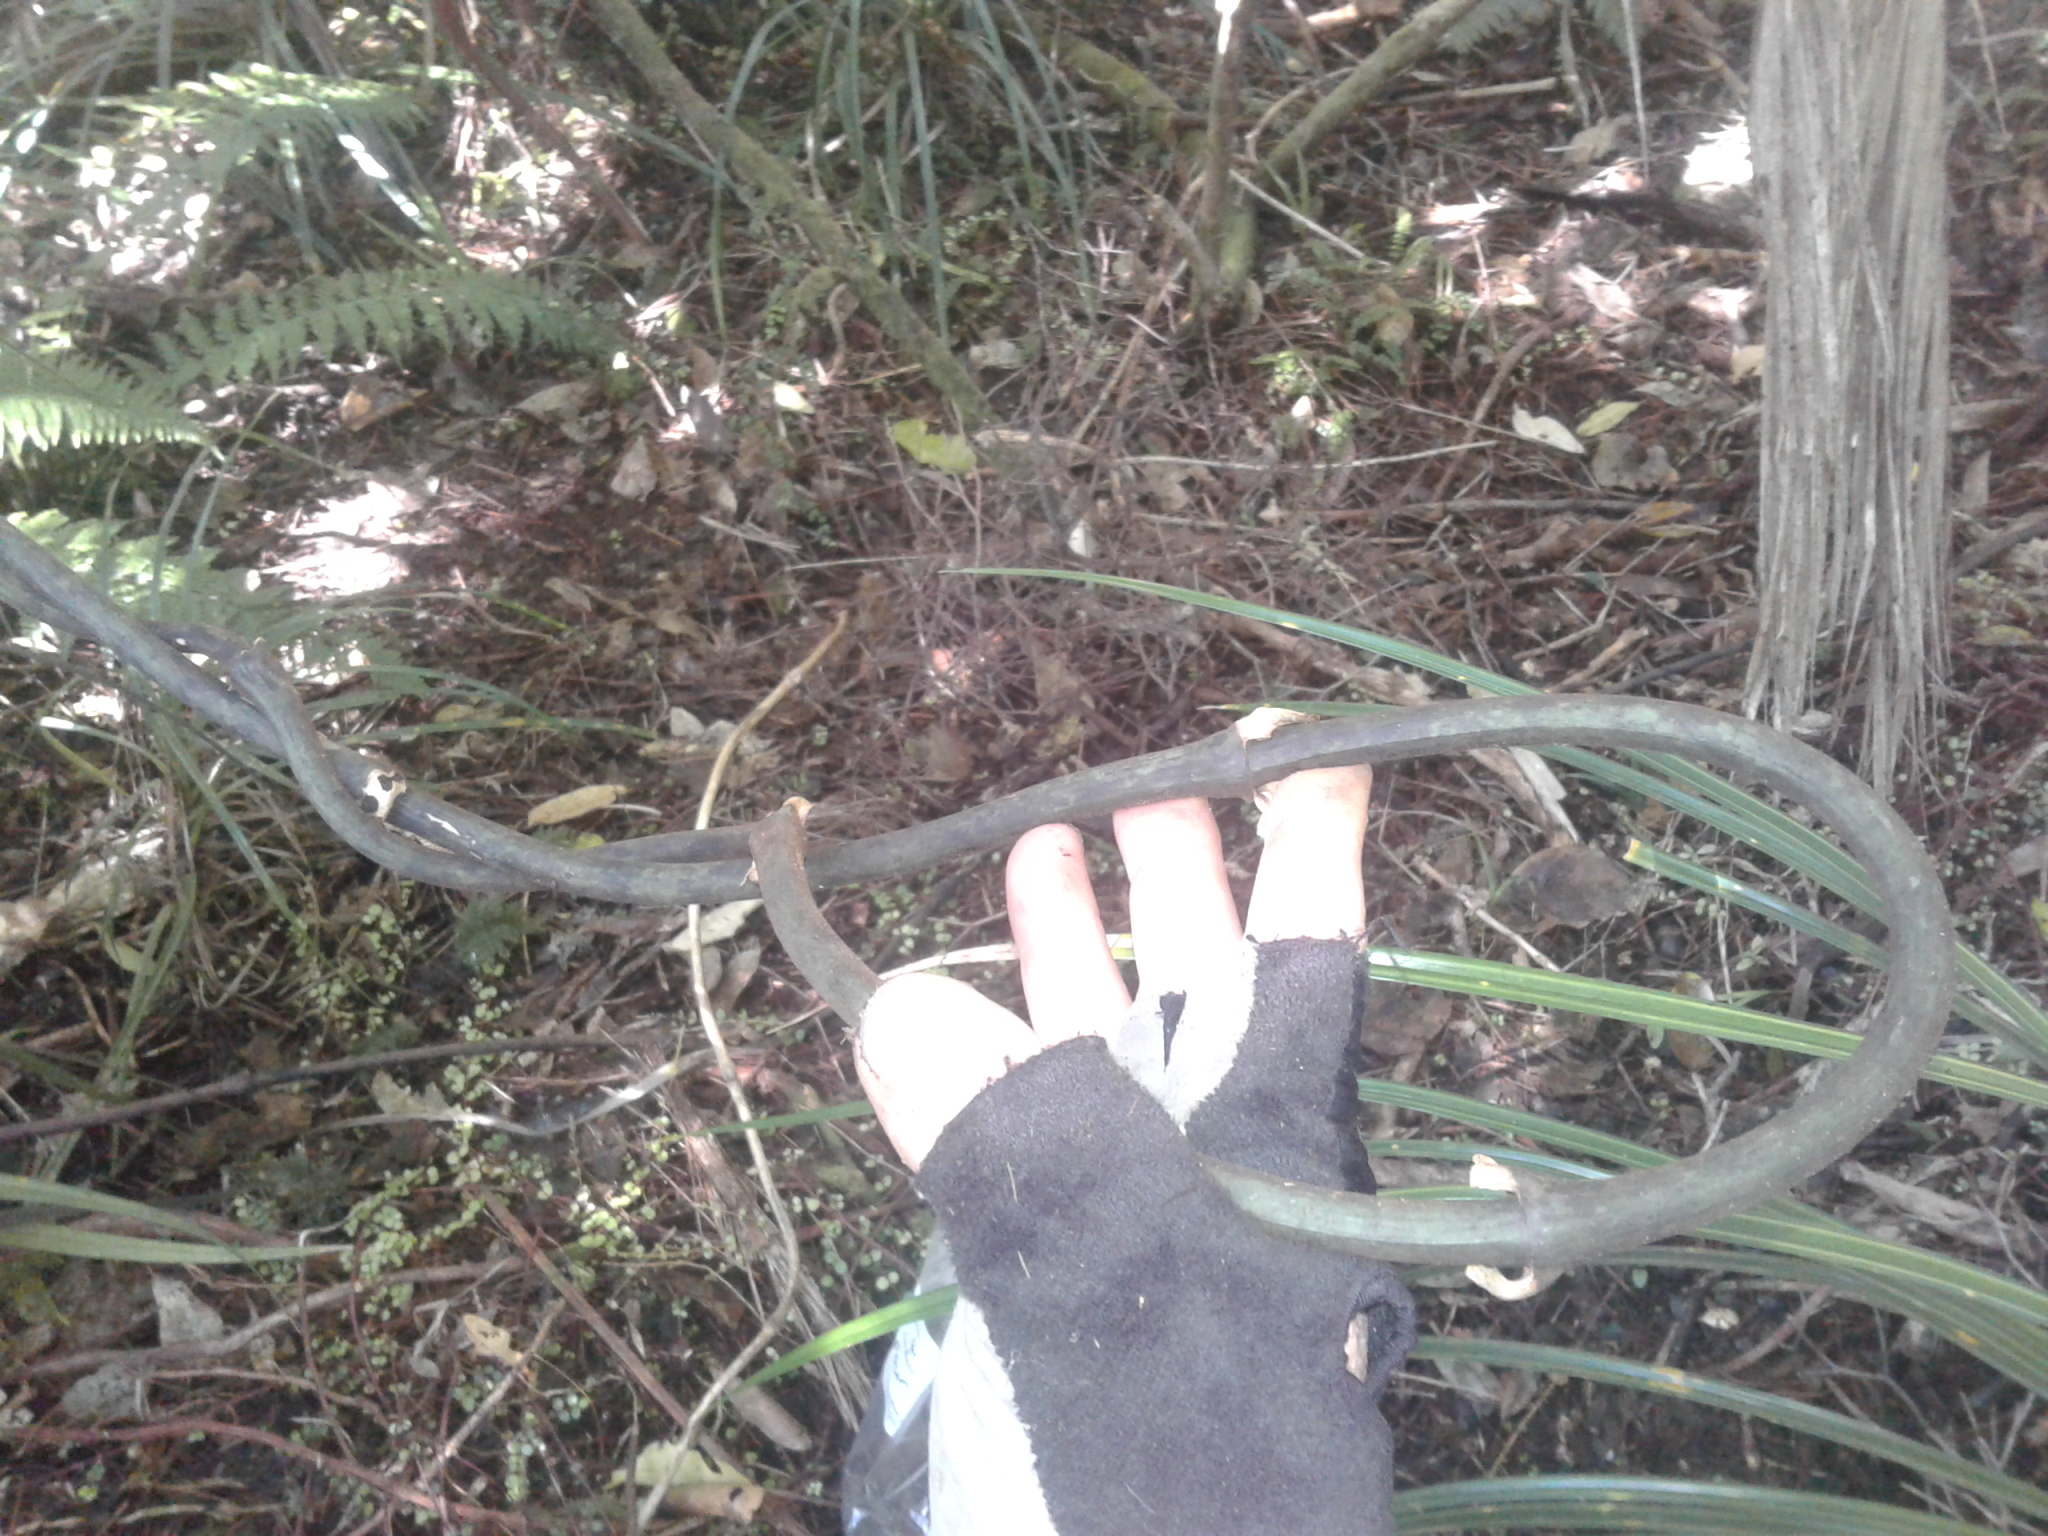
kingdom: Plantae
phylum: Tracheophyta
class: Liliopsida
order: Liliales
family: Ripogonaceae
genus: Ripogonum
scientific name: Ripogonum scandens
